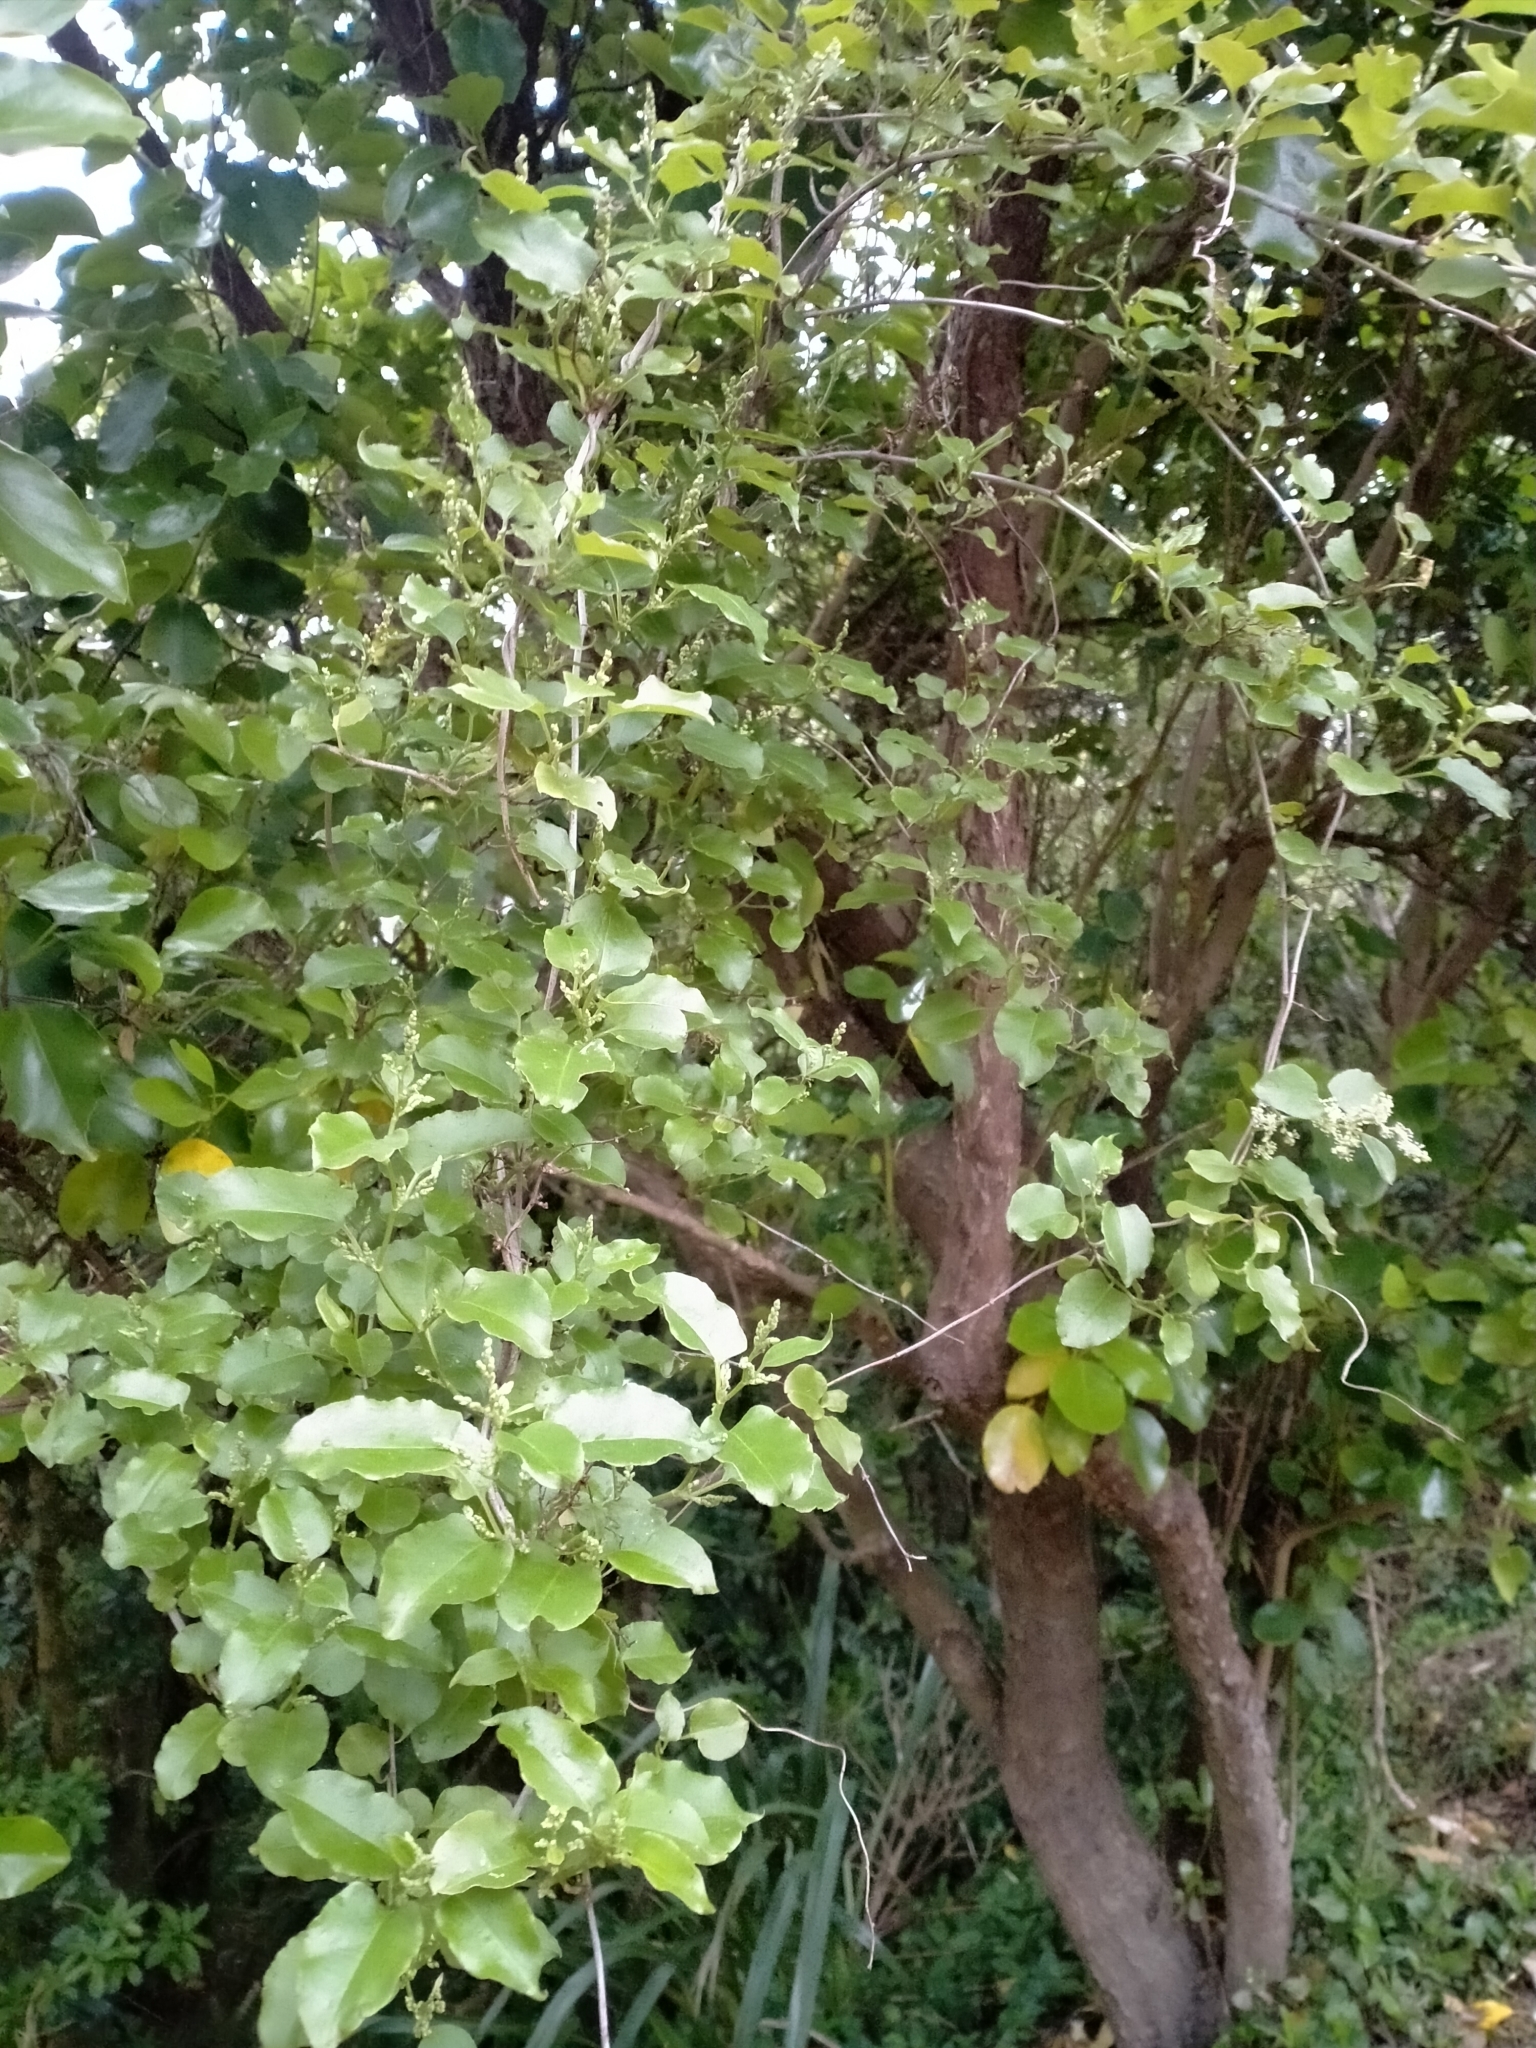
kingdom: Plantae
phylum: Tracheophyta
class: Magnoliopsida
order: Caryophyllales
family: Polygonaceae
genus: Muehlenbeckia
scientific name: Muehlenbeckia australis
